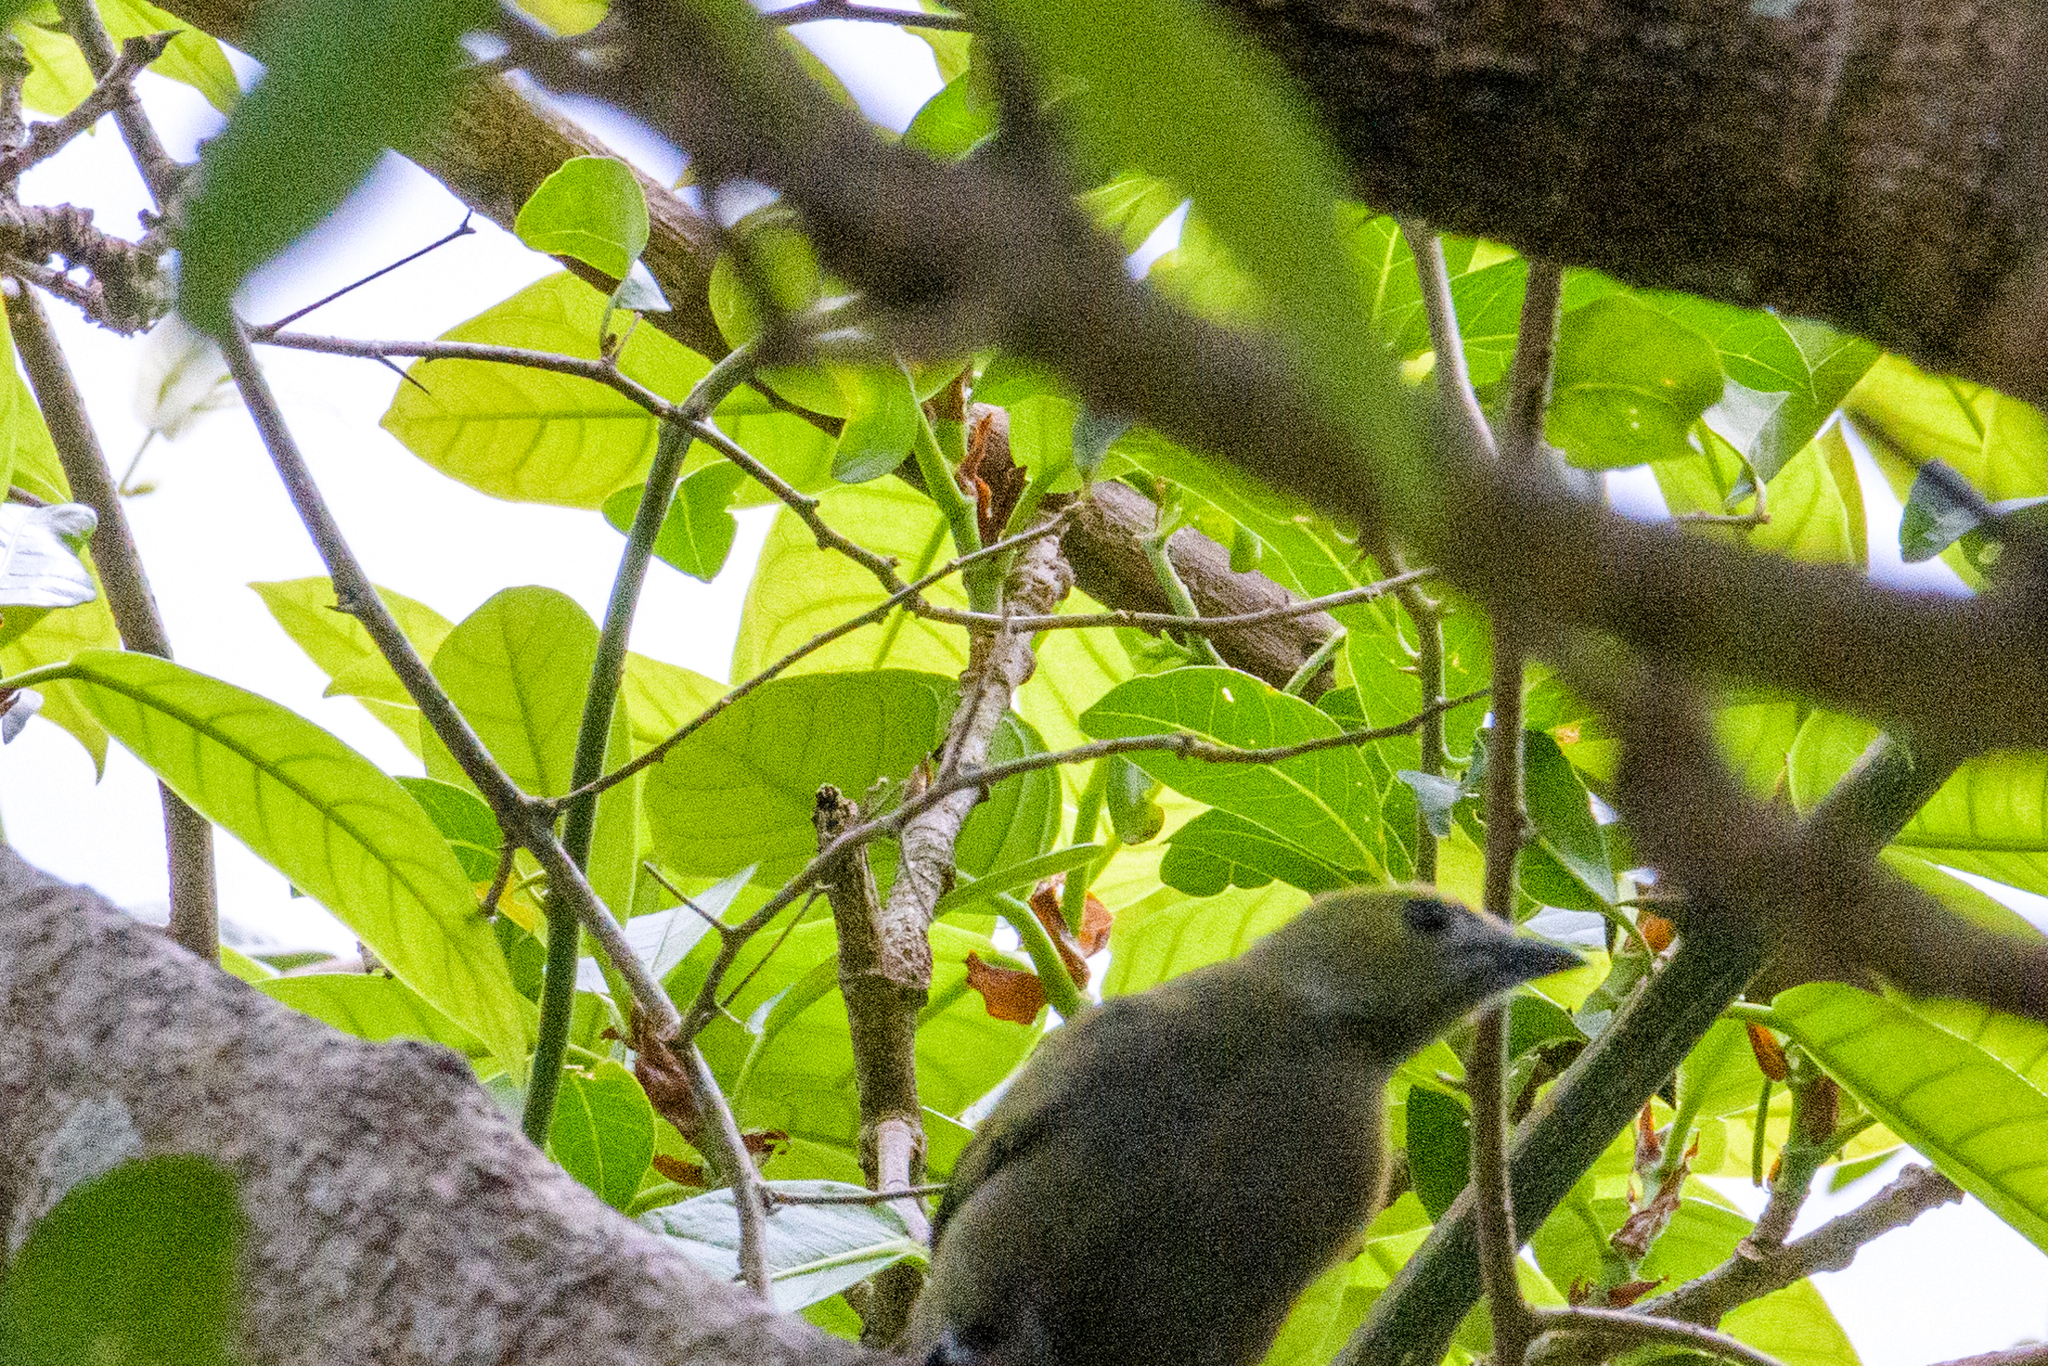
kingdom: Animalia
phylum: Chordata
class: Aves
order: Passeriformes
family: Thraupidae
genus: Thraupis
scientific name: Thraupis palmarum
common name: Palm tanager
